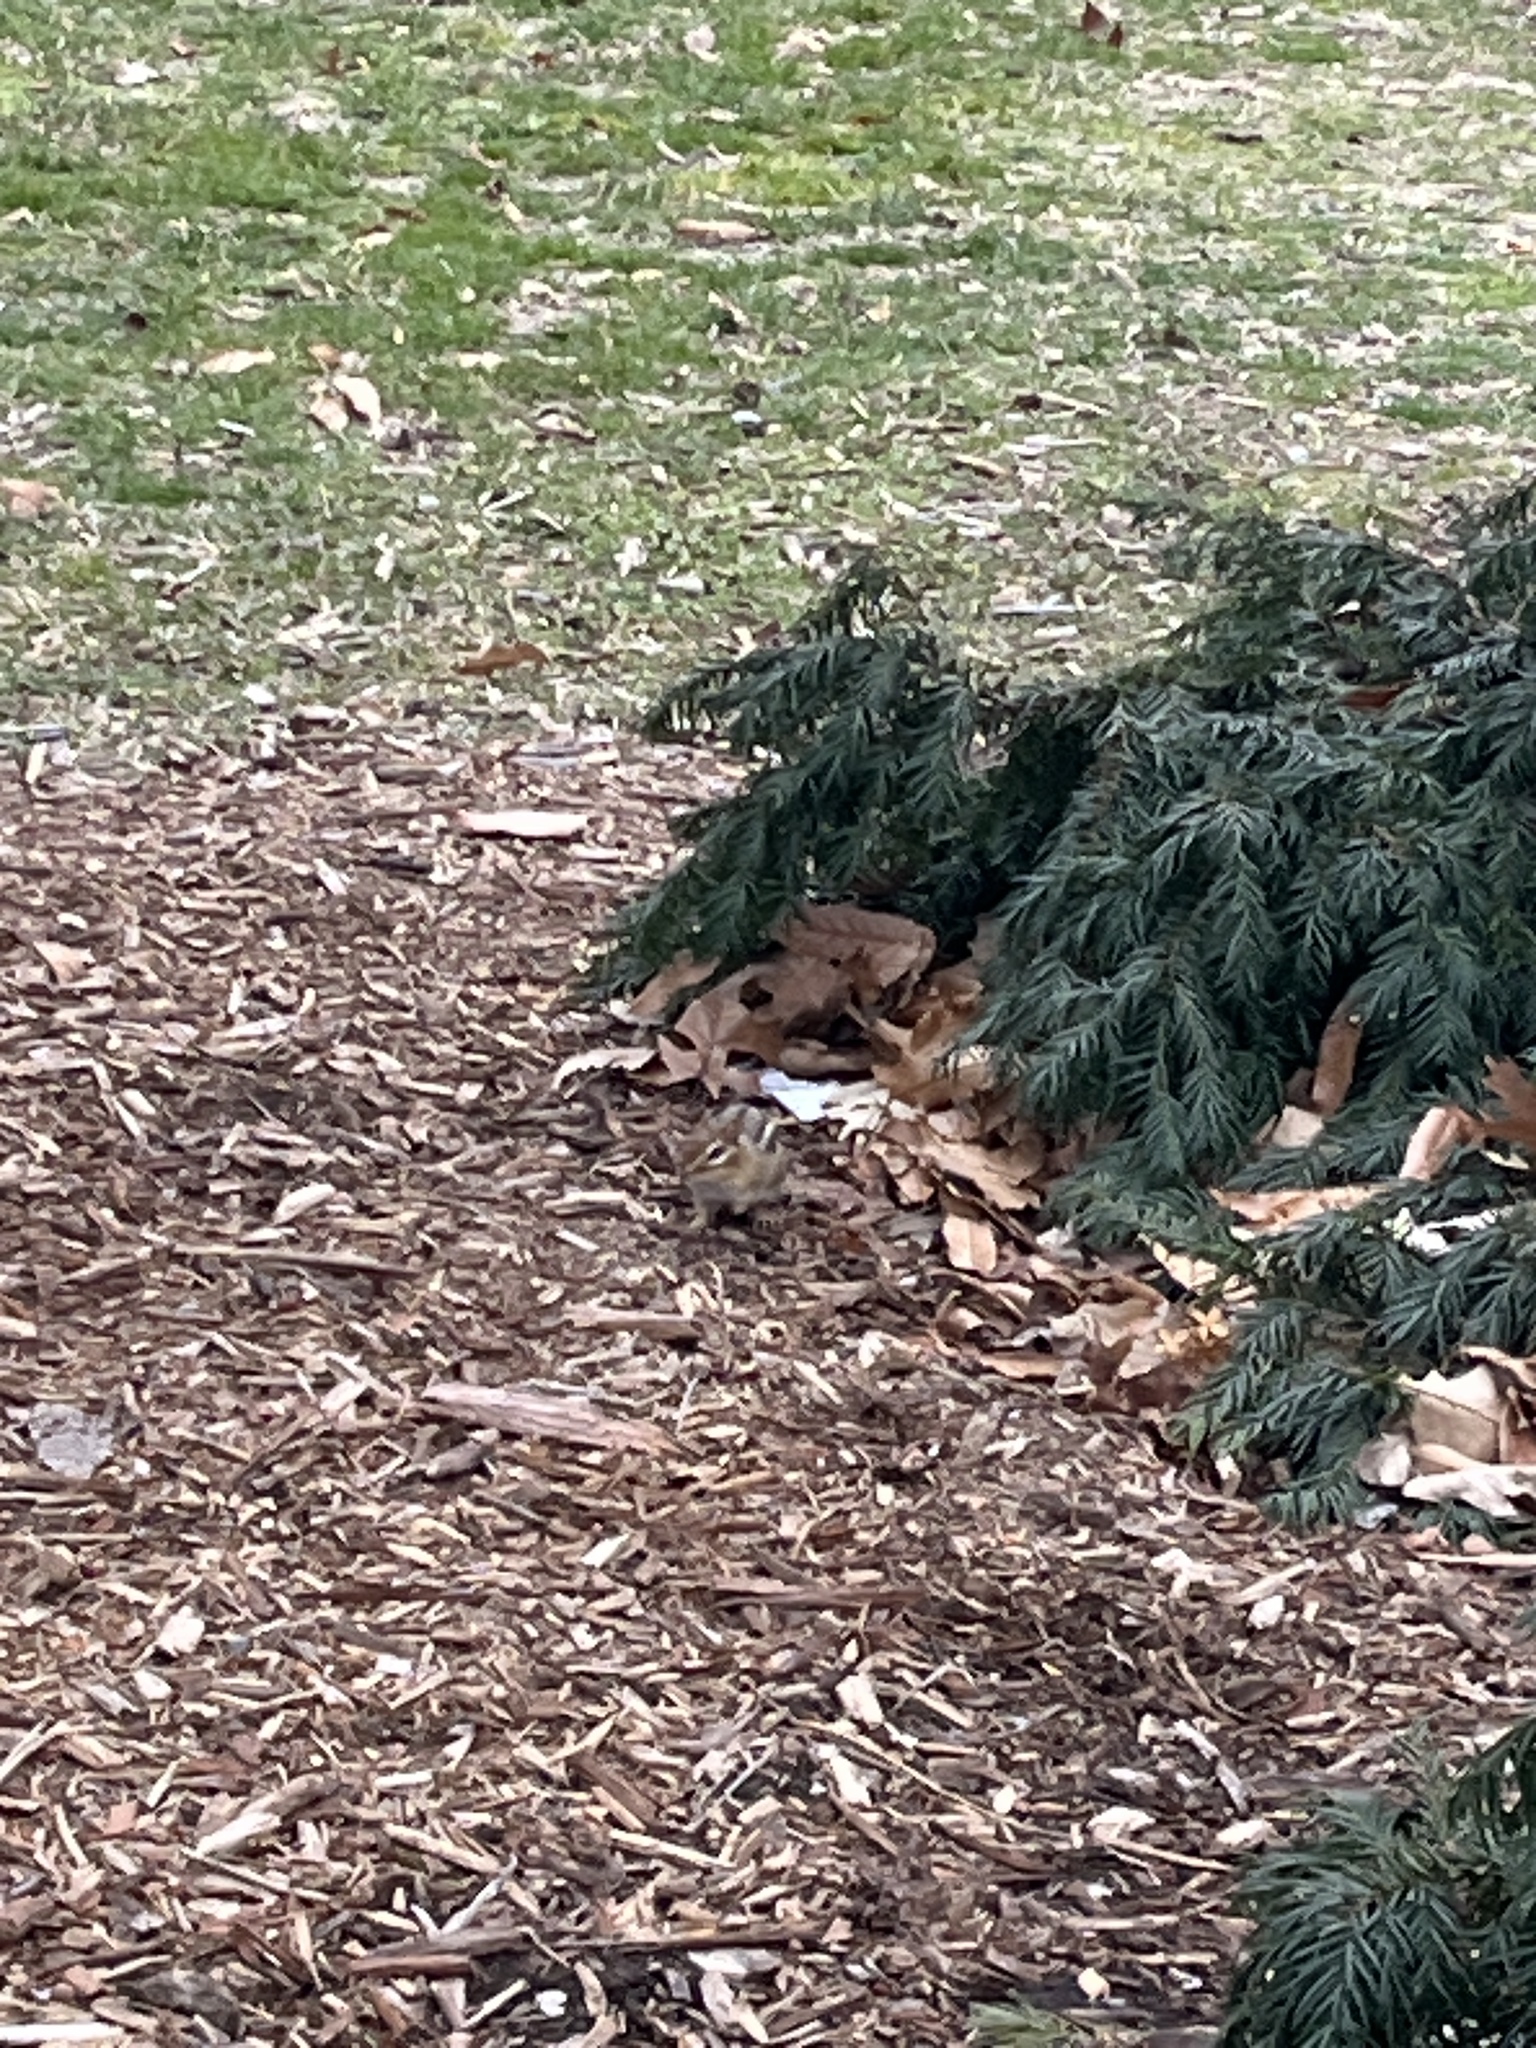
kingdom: Animalia
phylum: Chordata
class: Mammalia
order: Rodentia
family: Sciuridae
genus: Tamias
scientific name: Tamias striatus
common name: Eastern chipmunk
